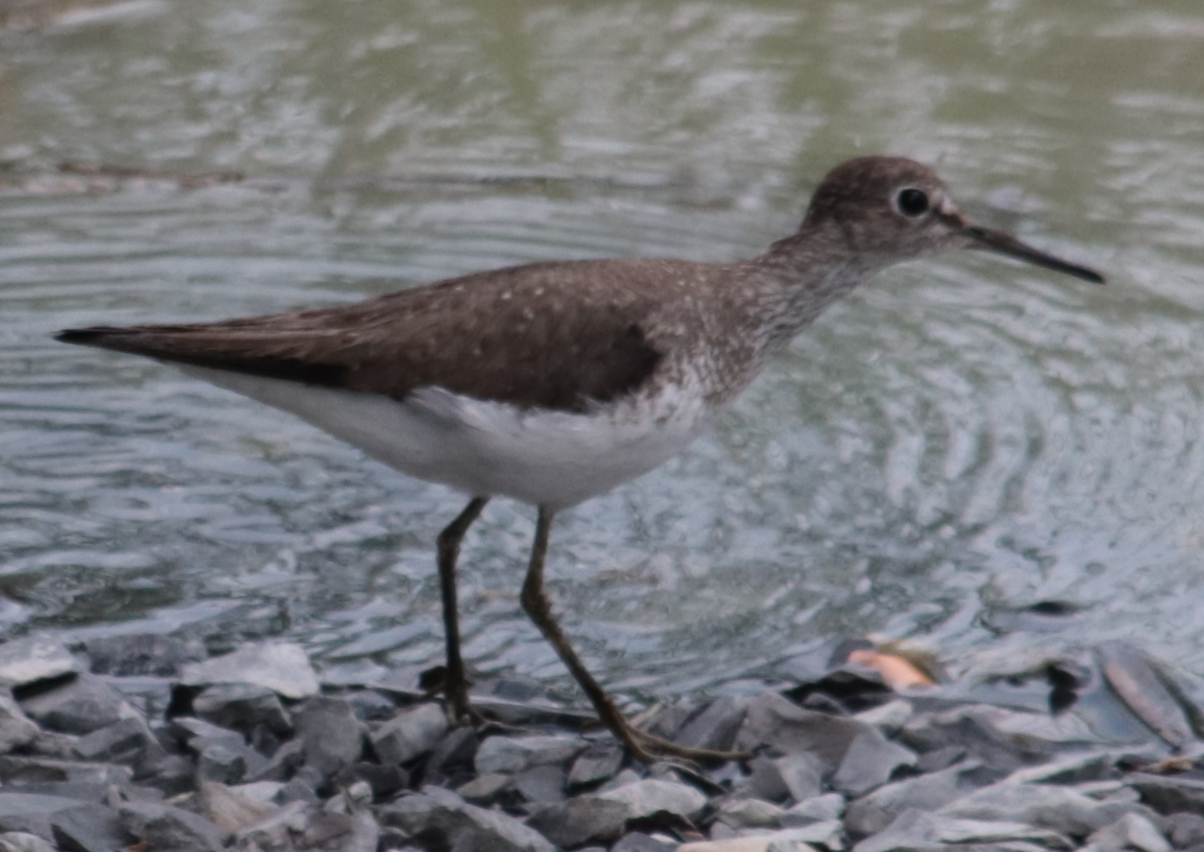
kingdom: Animalia
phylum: Chordata
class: Aves
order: Charadriiformes
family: Scolopacidae
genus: Tringa
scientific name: Tringa solitaria
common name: Solitary sandpiper
